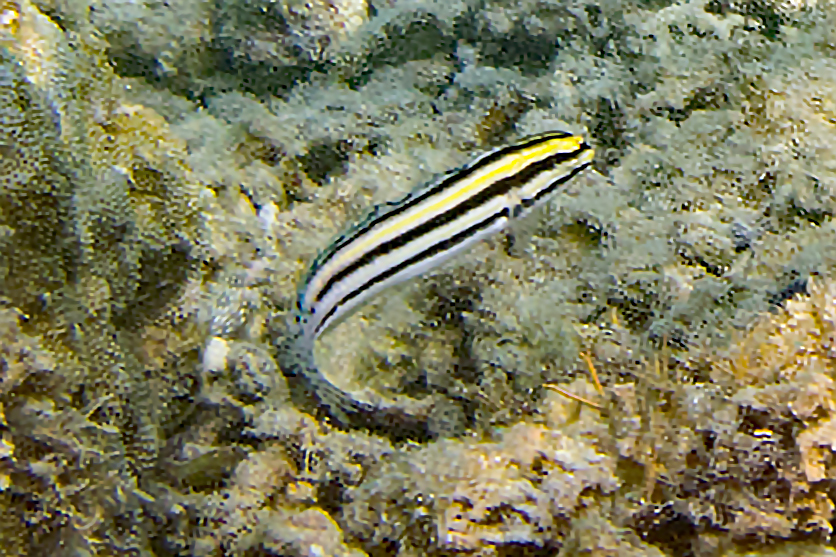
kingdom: Animalia
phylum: Chordata
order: Perciformes
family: Blenniidae
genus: Meiacanthus
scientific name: Meiacanthus grammistes
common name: Grammistes blenny
